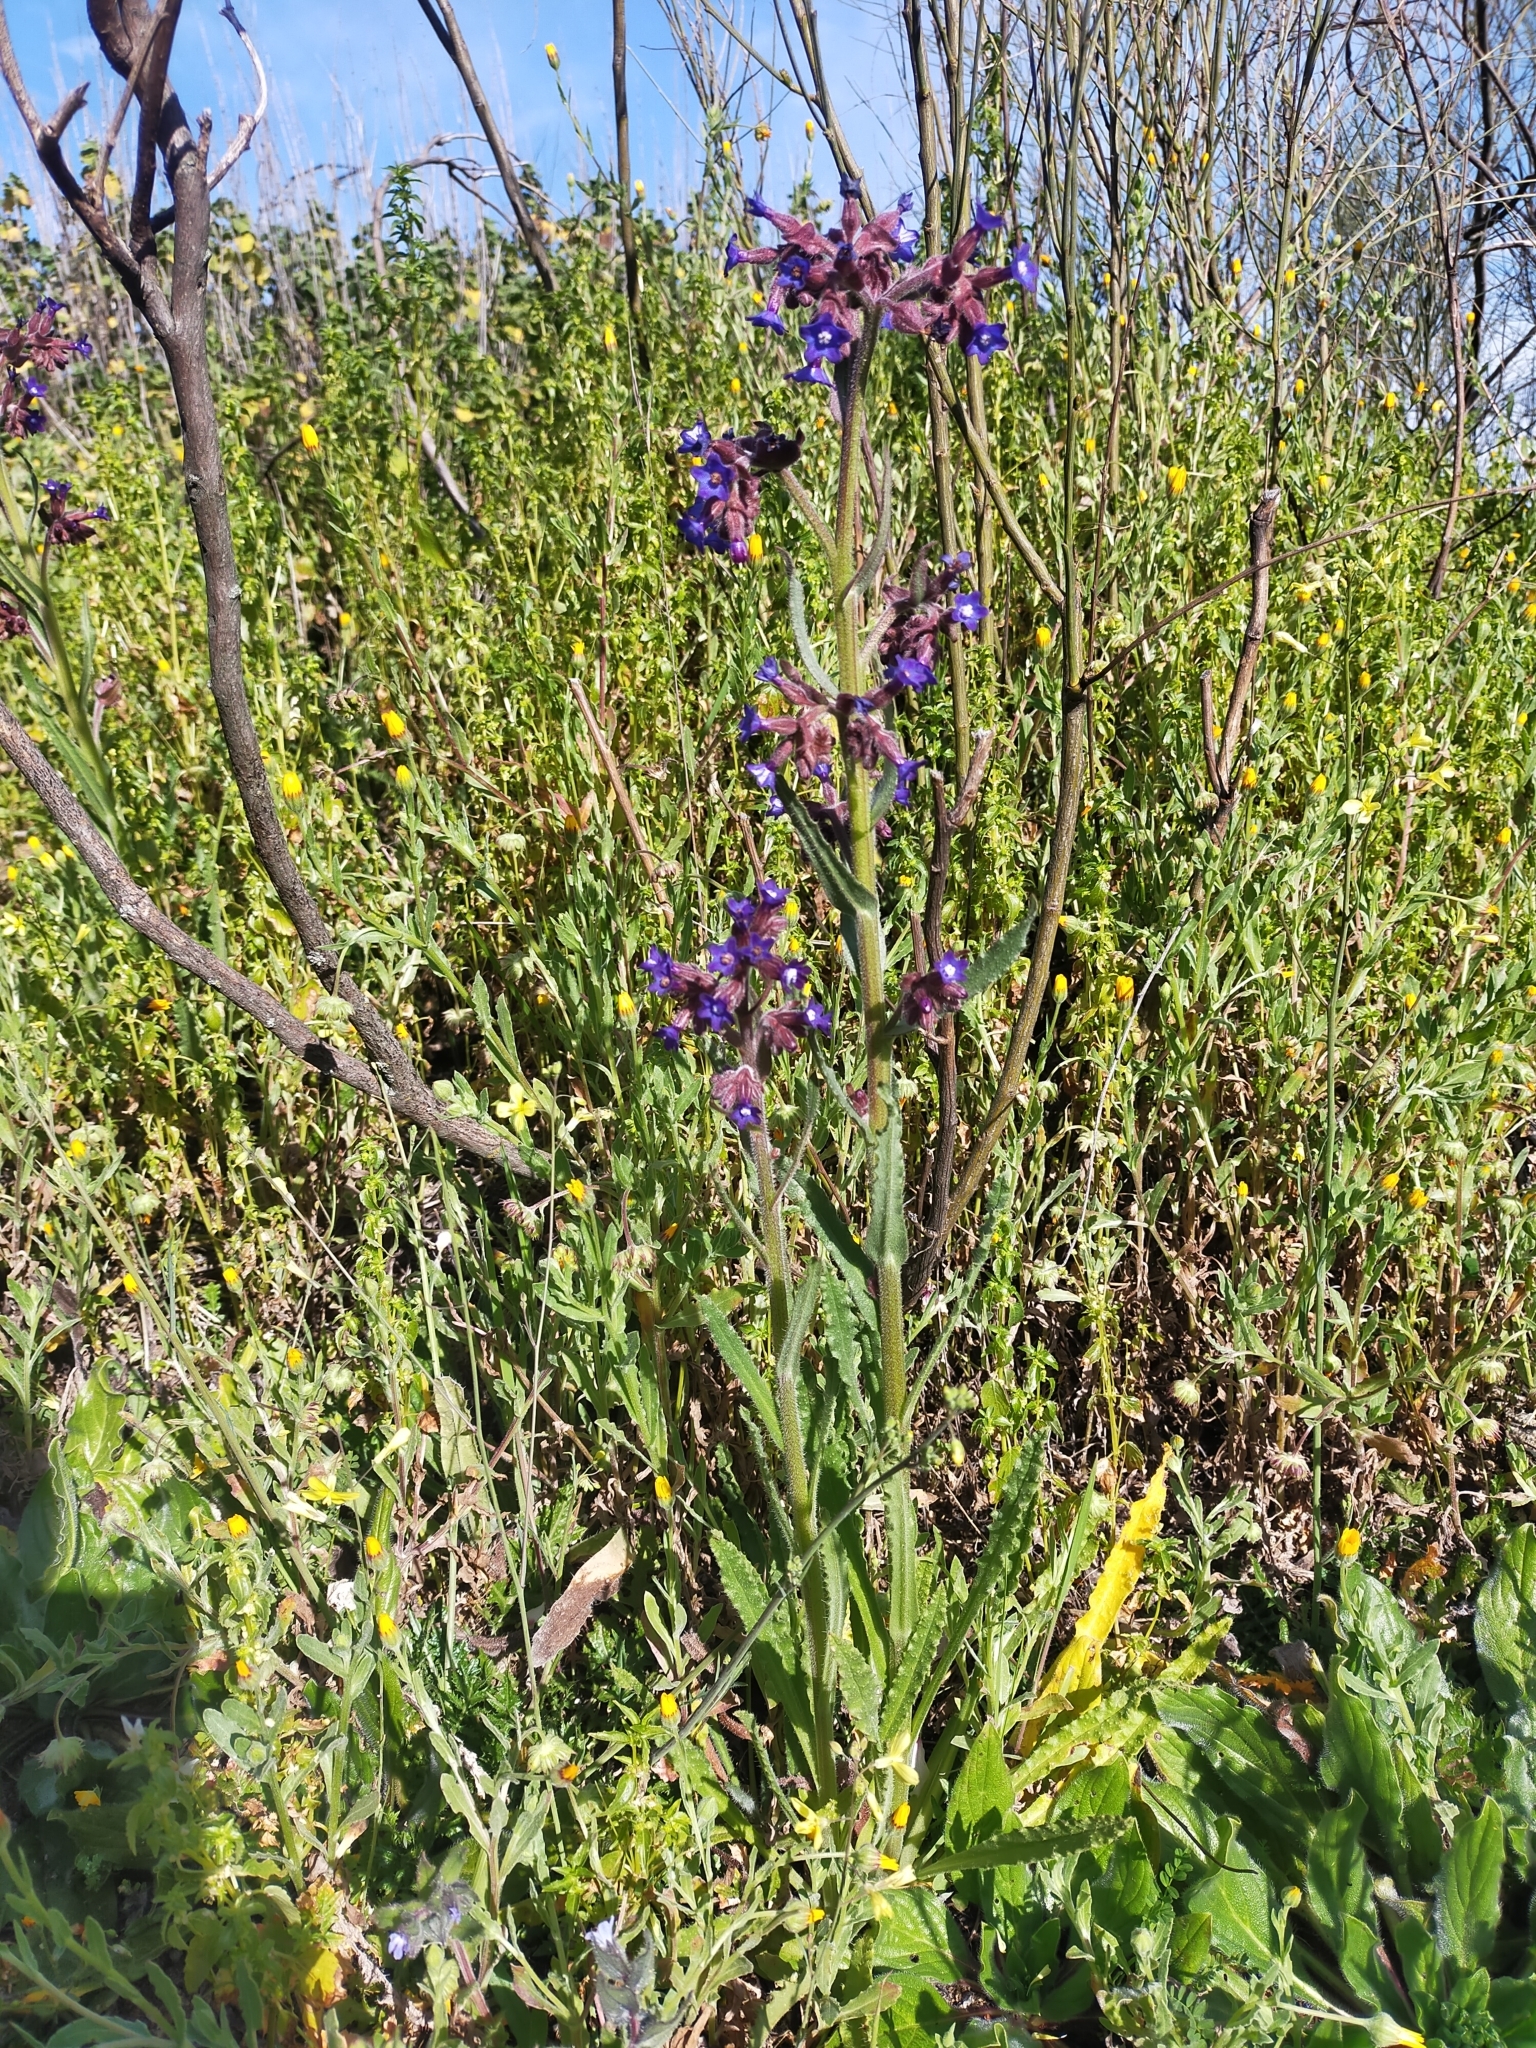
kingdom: Plantae
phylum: Tracheophyta
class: Magnoliopsida
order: Boraginales
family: Boraginaceae
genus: Anchusa
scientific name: Anchusa undulata
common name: Undulate alkanet
